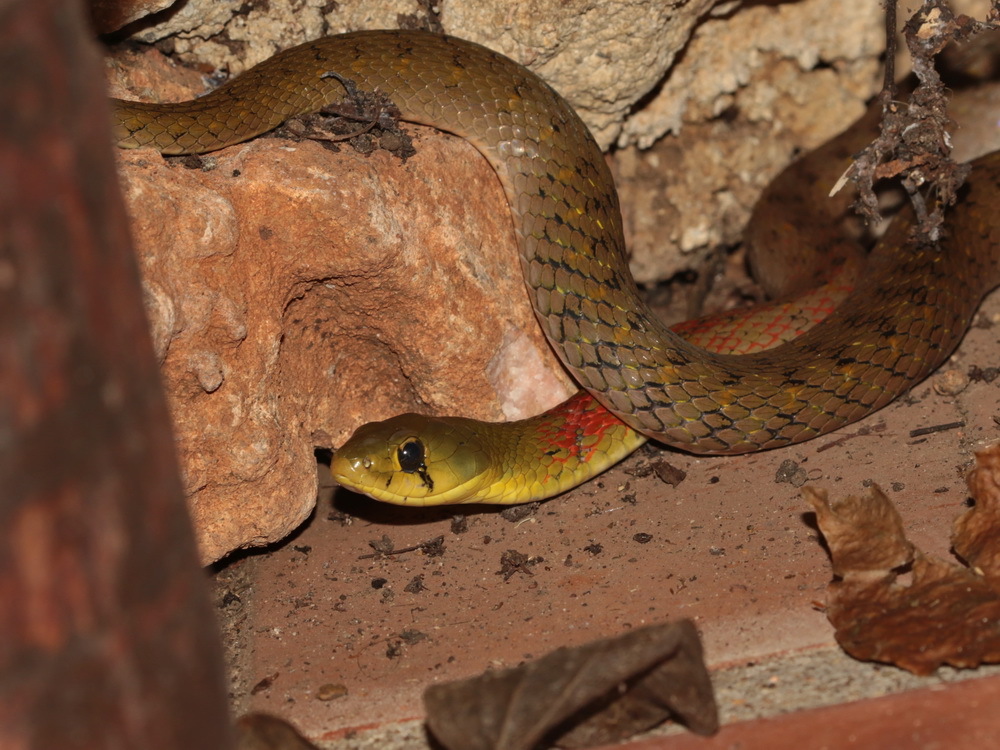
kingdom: Animalia
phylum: Chordata
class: Squamata
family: Colubridae
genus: Rhabdophis
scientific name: Rhabdophis
